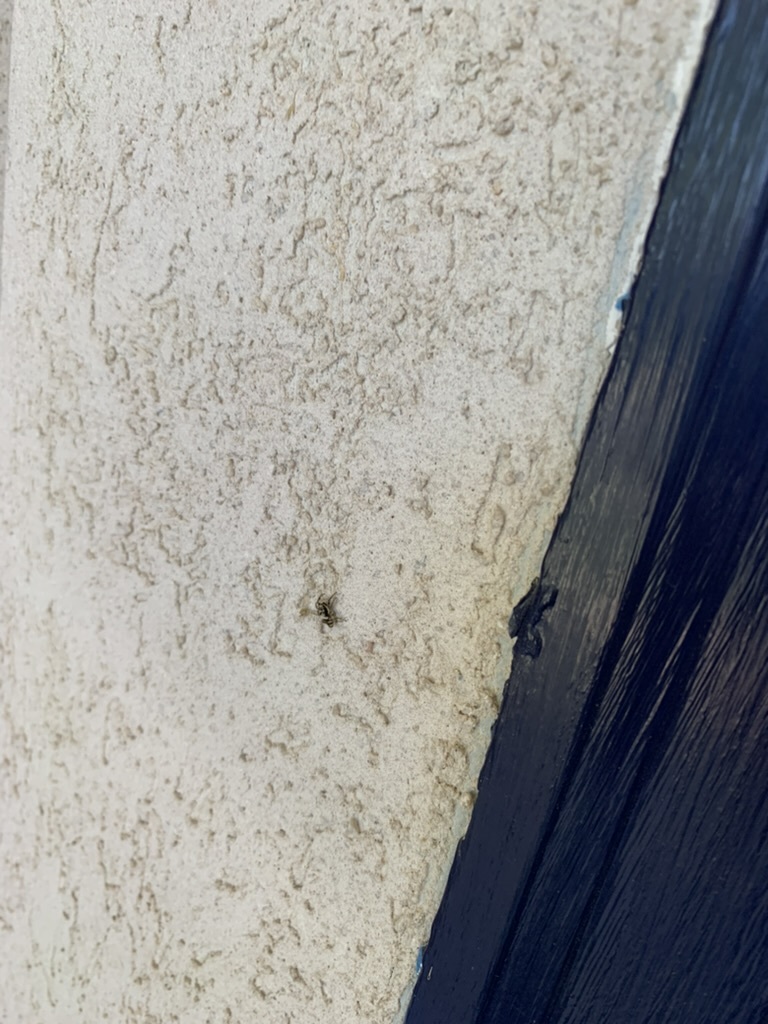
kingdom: Animalia
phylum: Arthropoda
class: Arachnida
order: Araneae
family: Salticidae
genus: Salticus
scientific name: Salticus scenicus
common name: Zebra jumper
